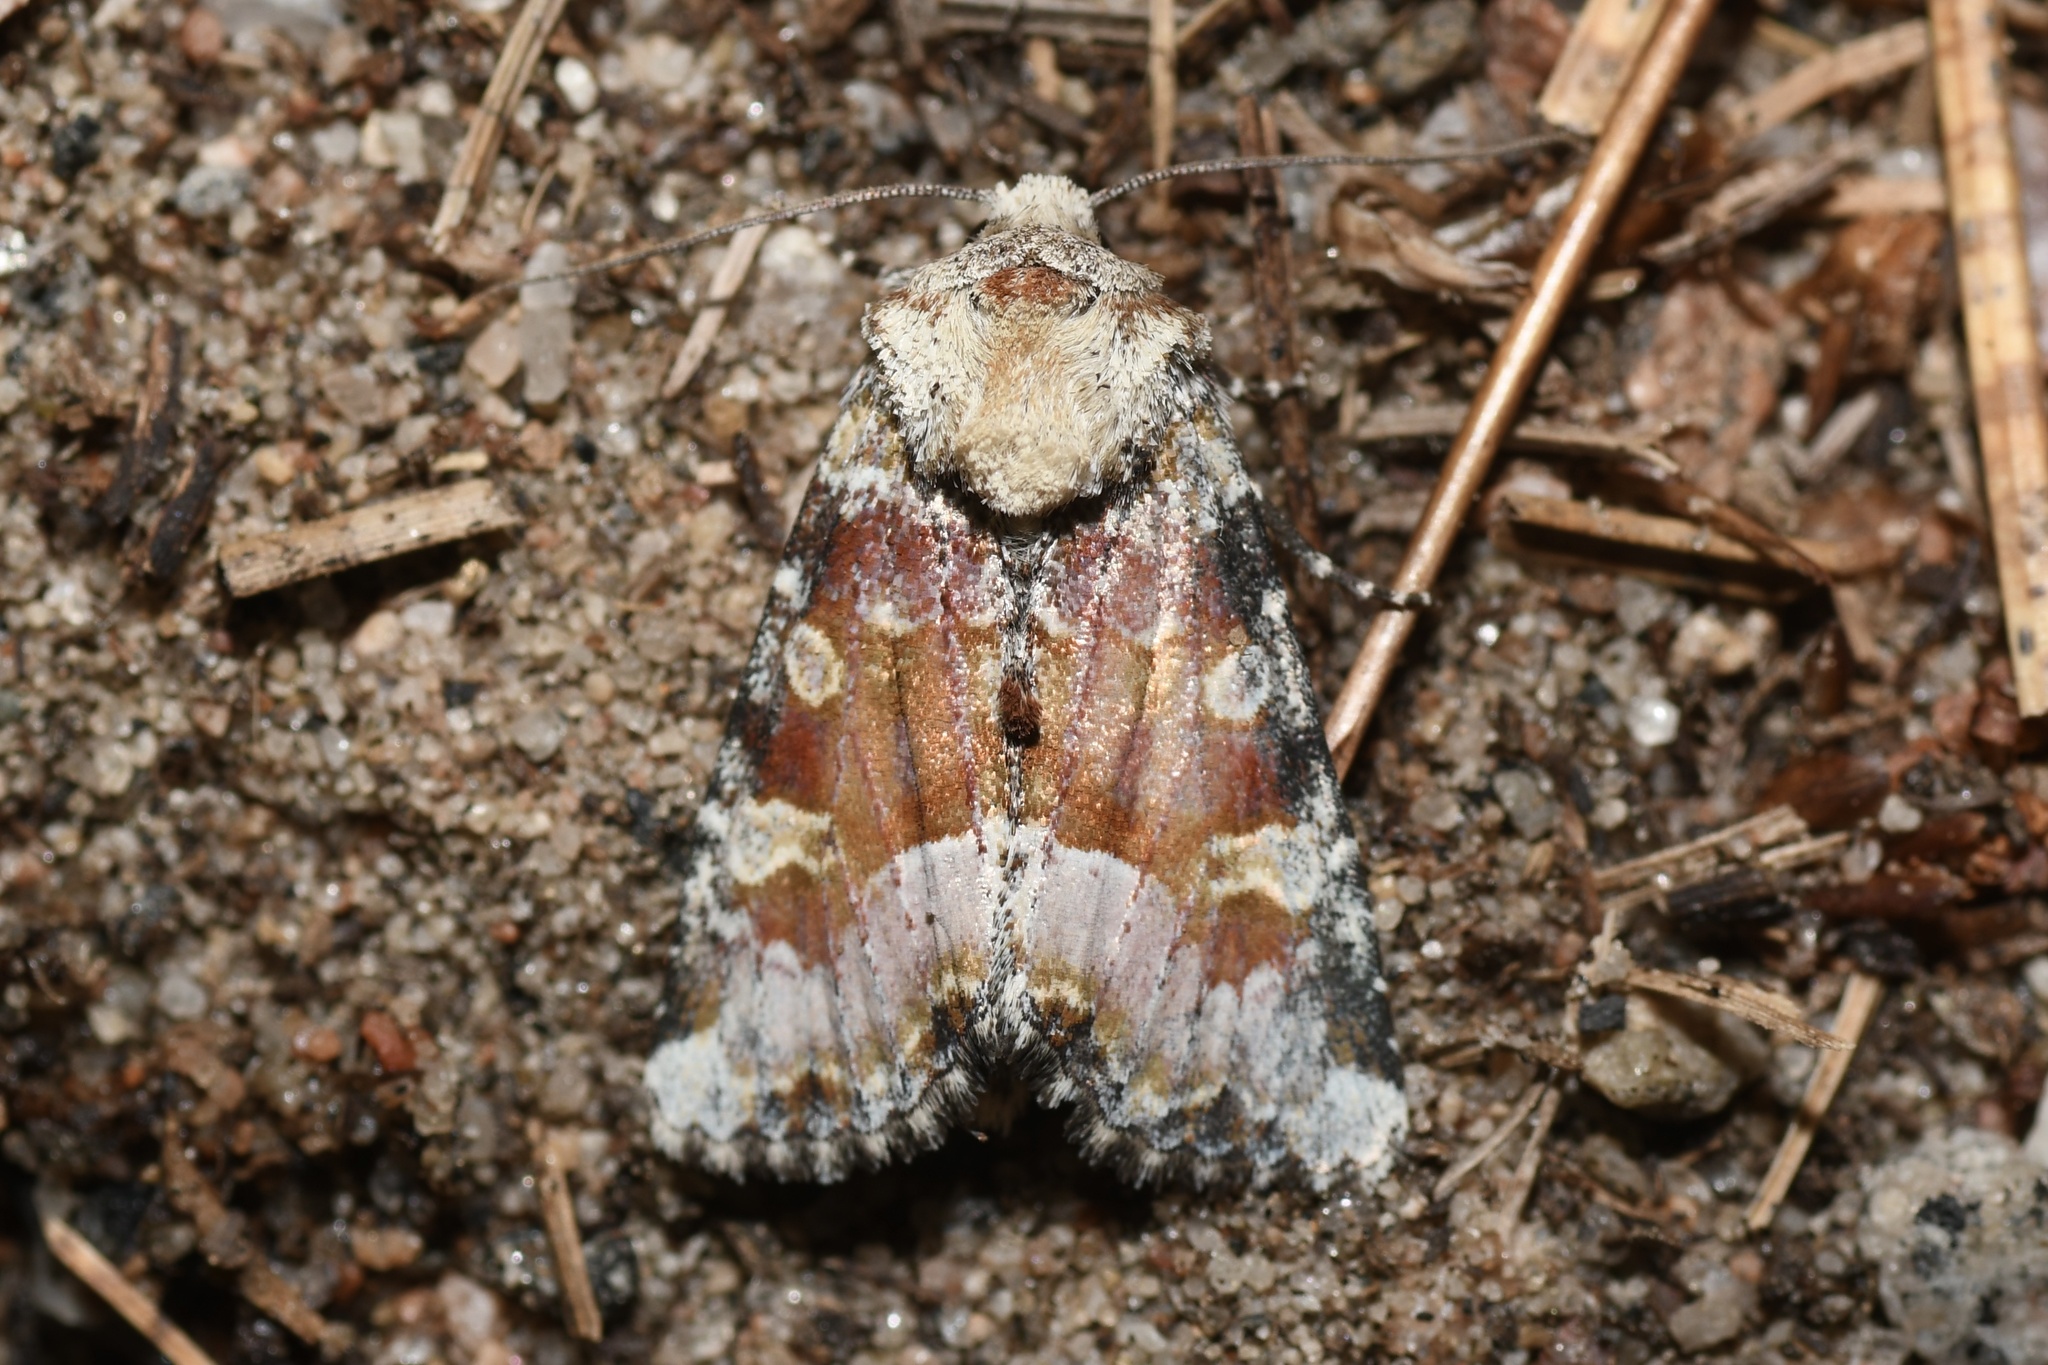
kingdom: Animalia
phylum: Arthropoda
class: Insecta
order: Lepidoptera
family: Noctuidae
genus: Oligia
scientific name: Oligia bridghamii
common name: Bridgham's brocade moth
